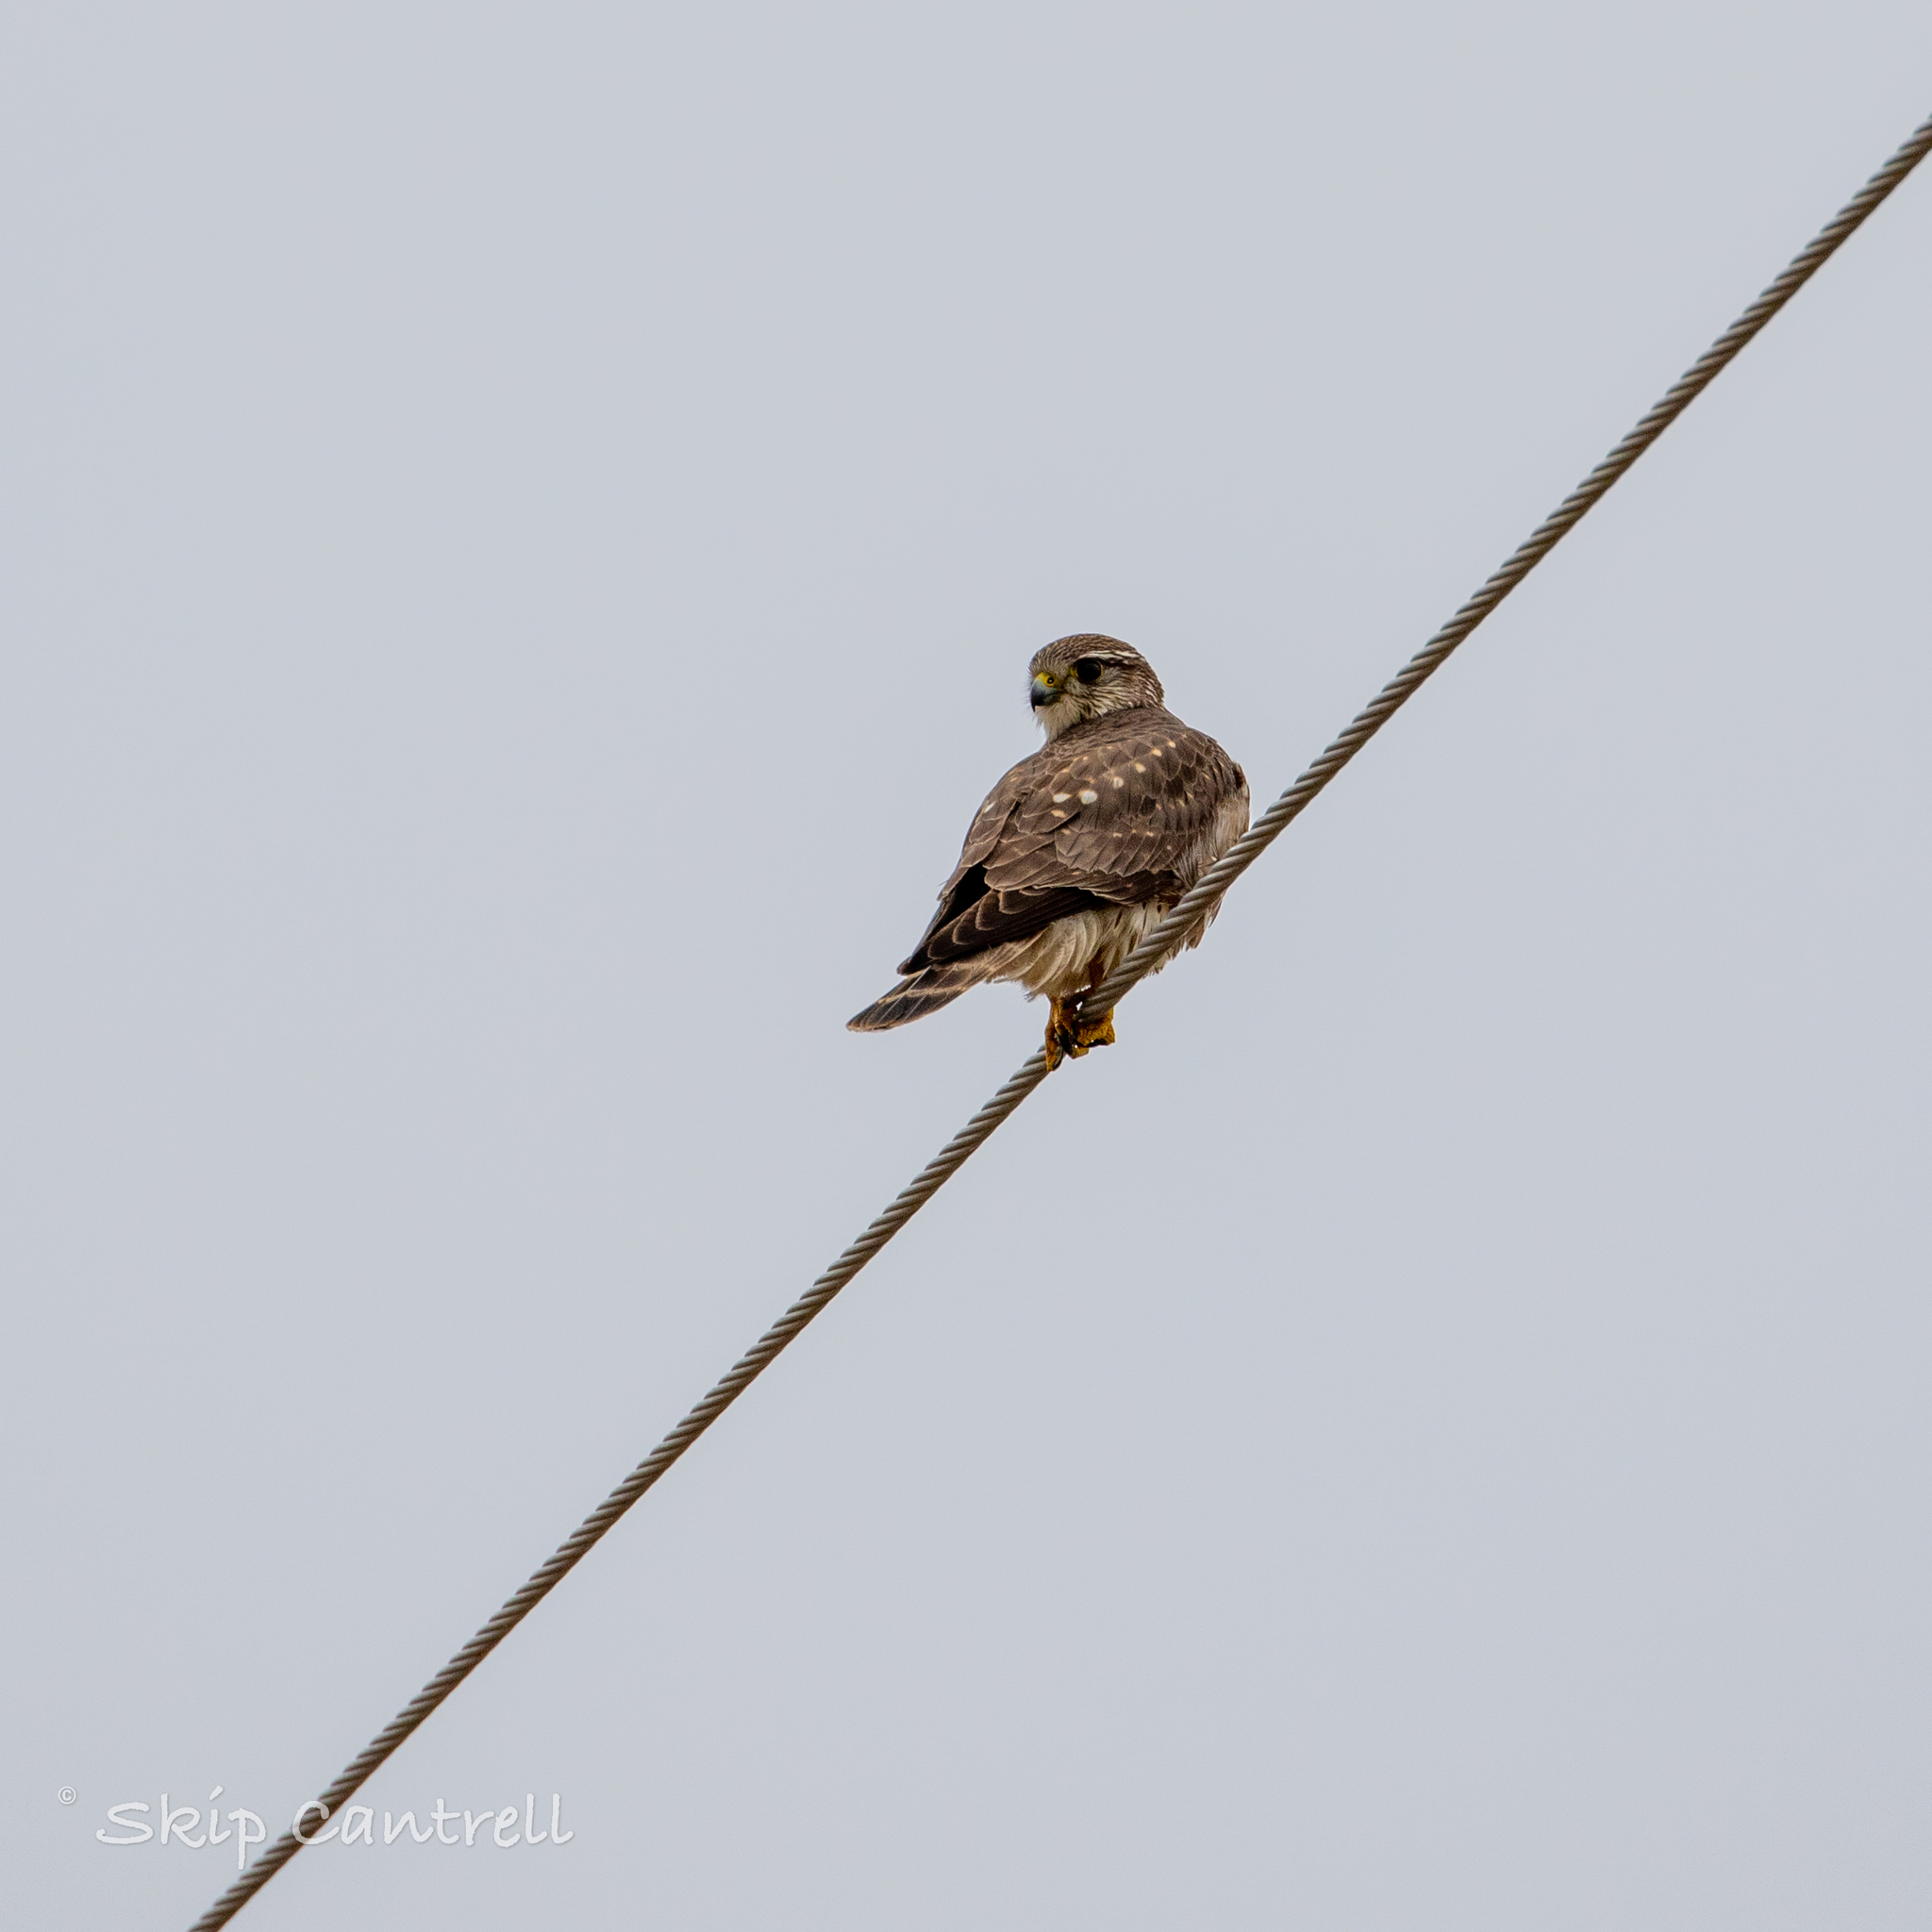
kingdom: Animalia
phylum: Chordata
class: Aves
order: Falconiformes
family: Falconidae
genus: Falco
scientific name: Falco columbarius
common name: Merlin
